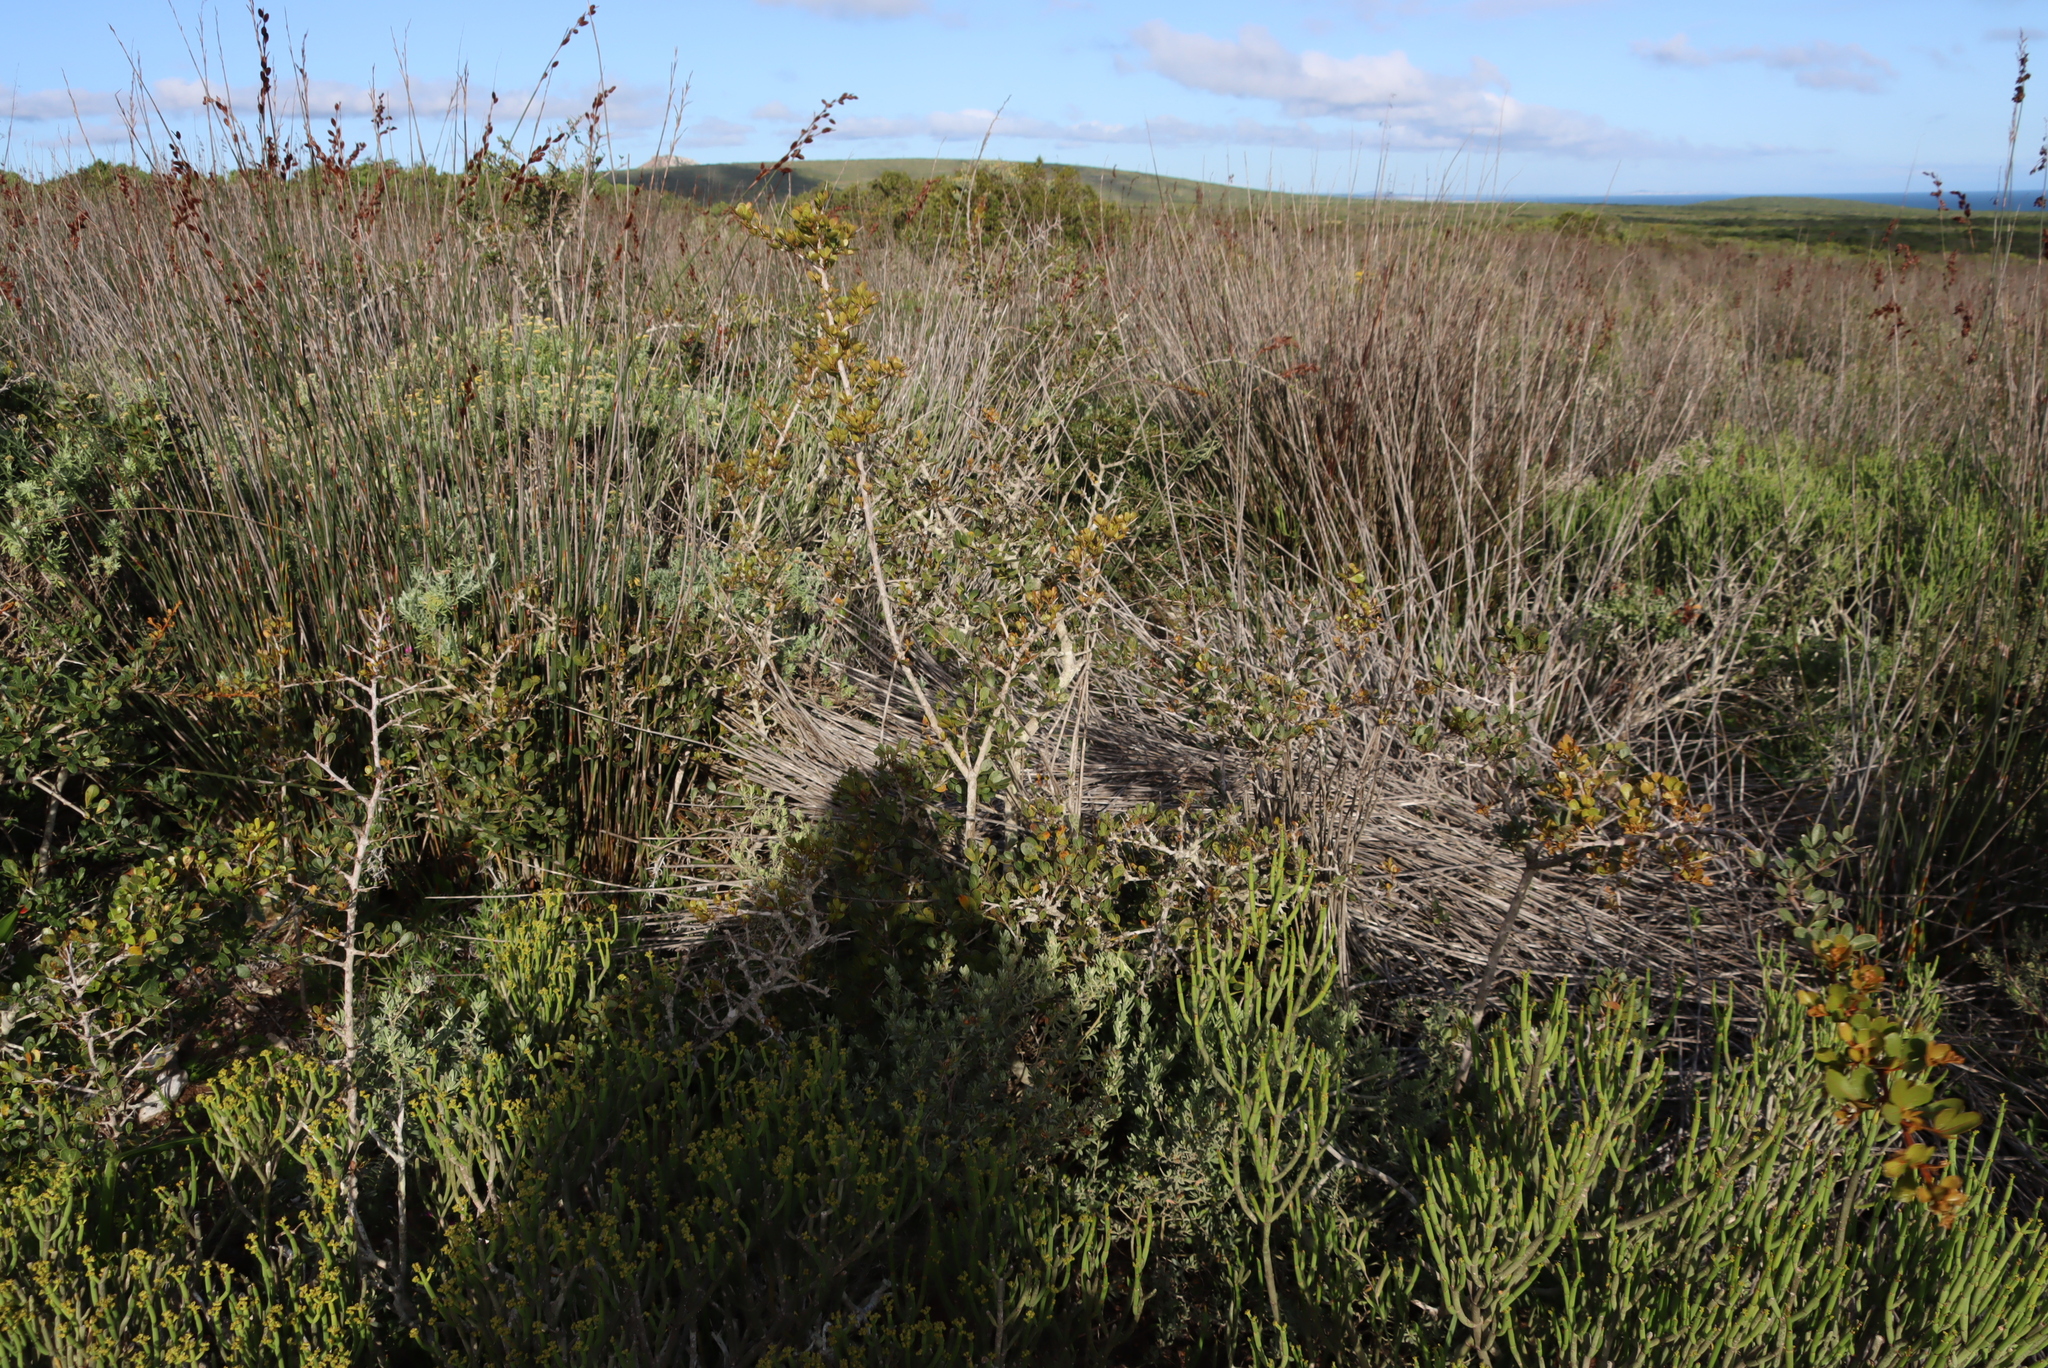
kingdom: Plantae
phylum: Tracheophyta
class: Magnoliopsida
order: Sapindales
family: Anacardiaceae
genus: Searsia
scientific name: Searsia pterota
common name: Winged currant
